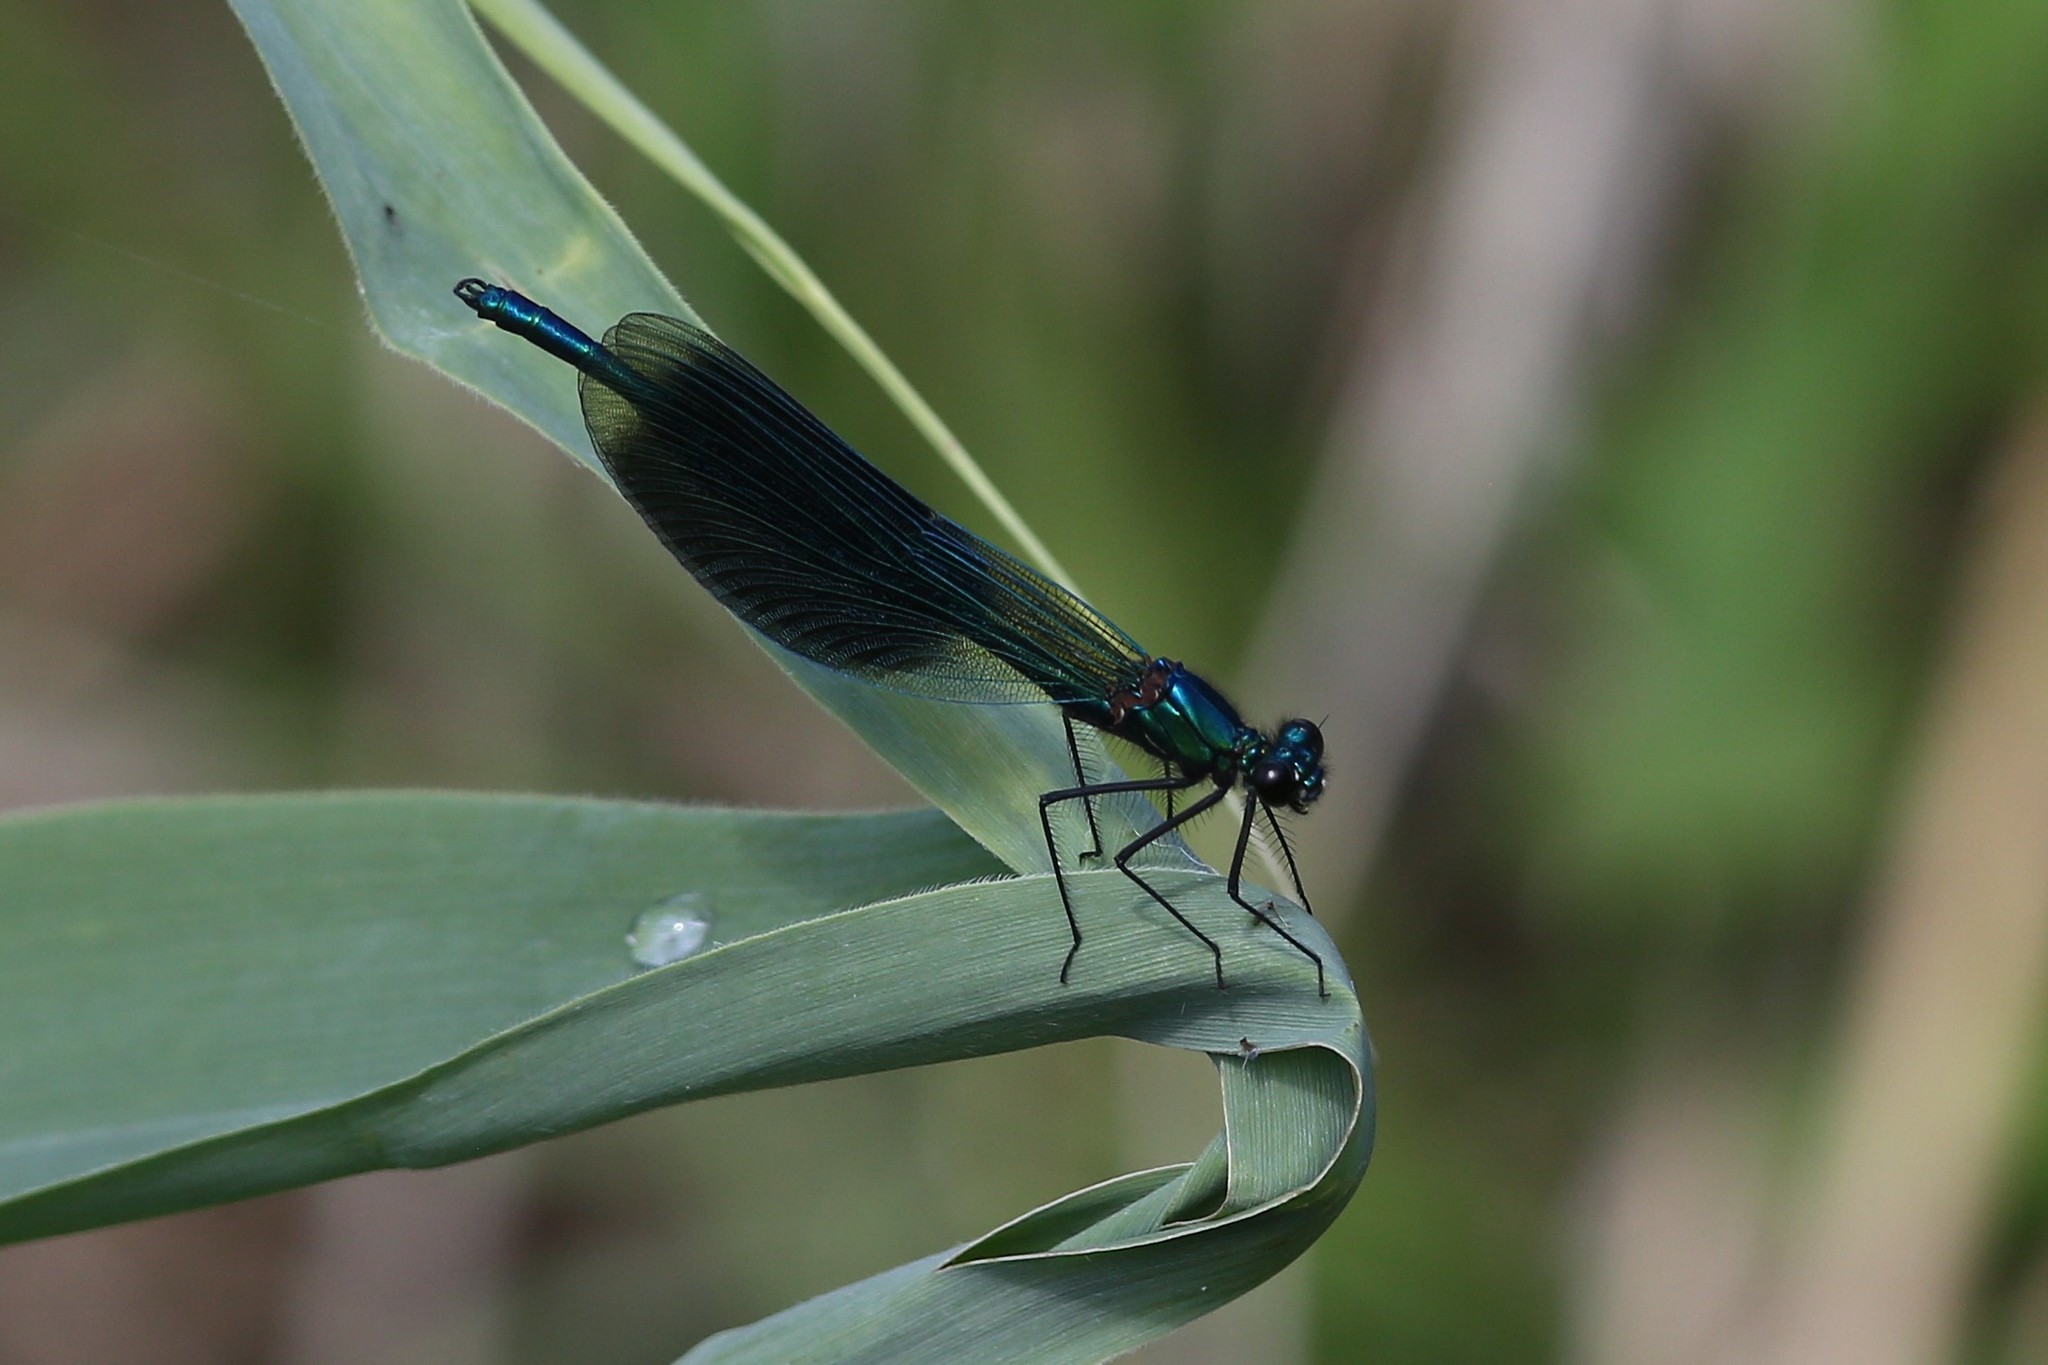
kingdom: Animalia
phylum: Arthropoda
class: Insecta
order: Odonata
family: Calopterygidae
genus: Calopteryx
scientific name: Calopteryx splendens
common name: Banded demoiselle
